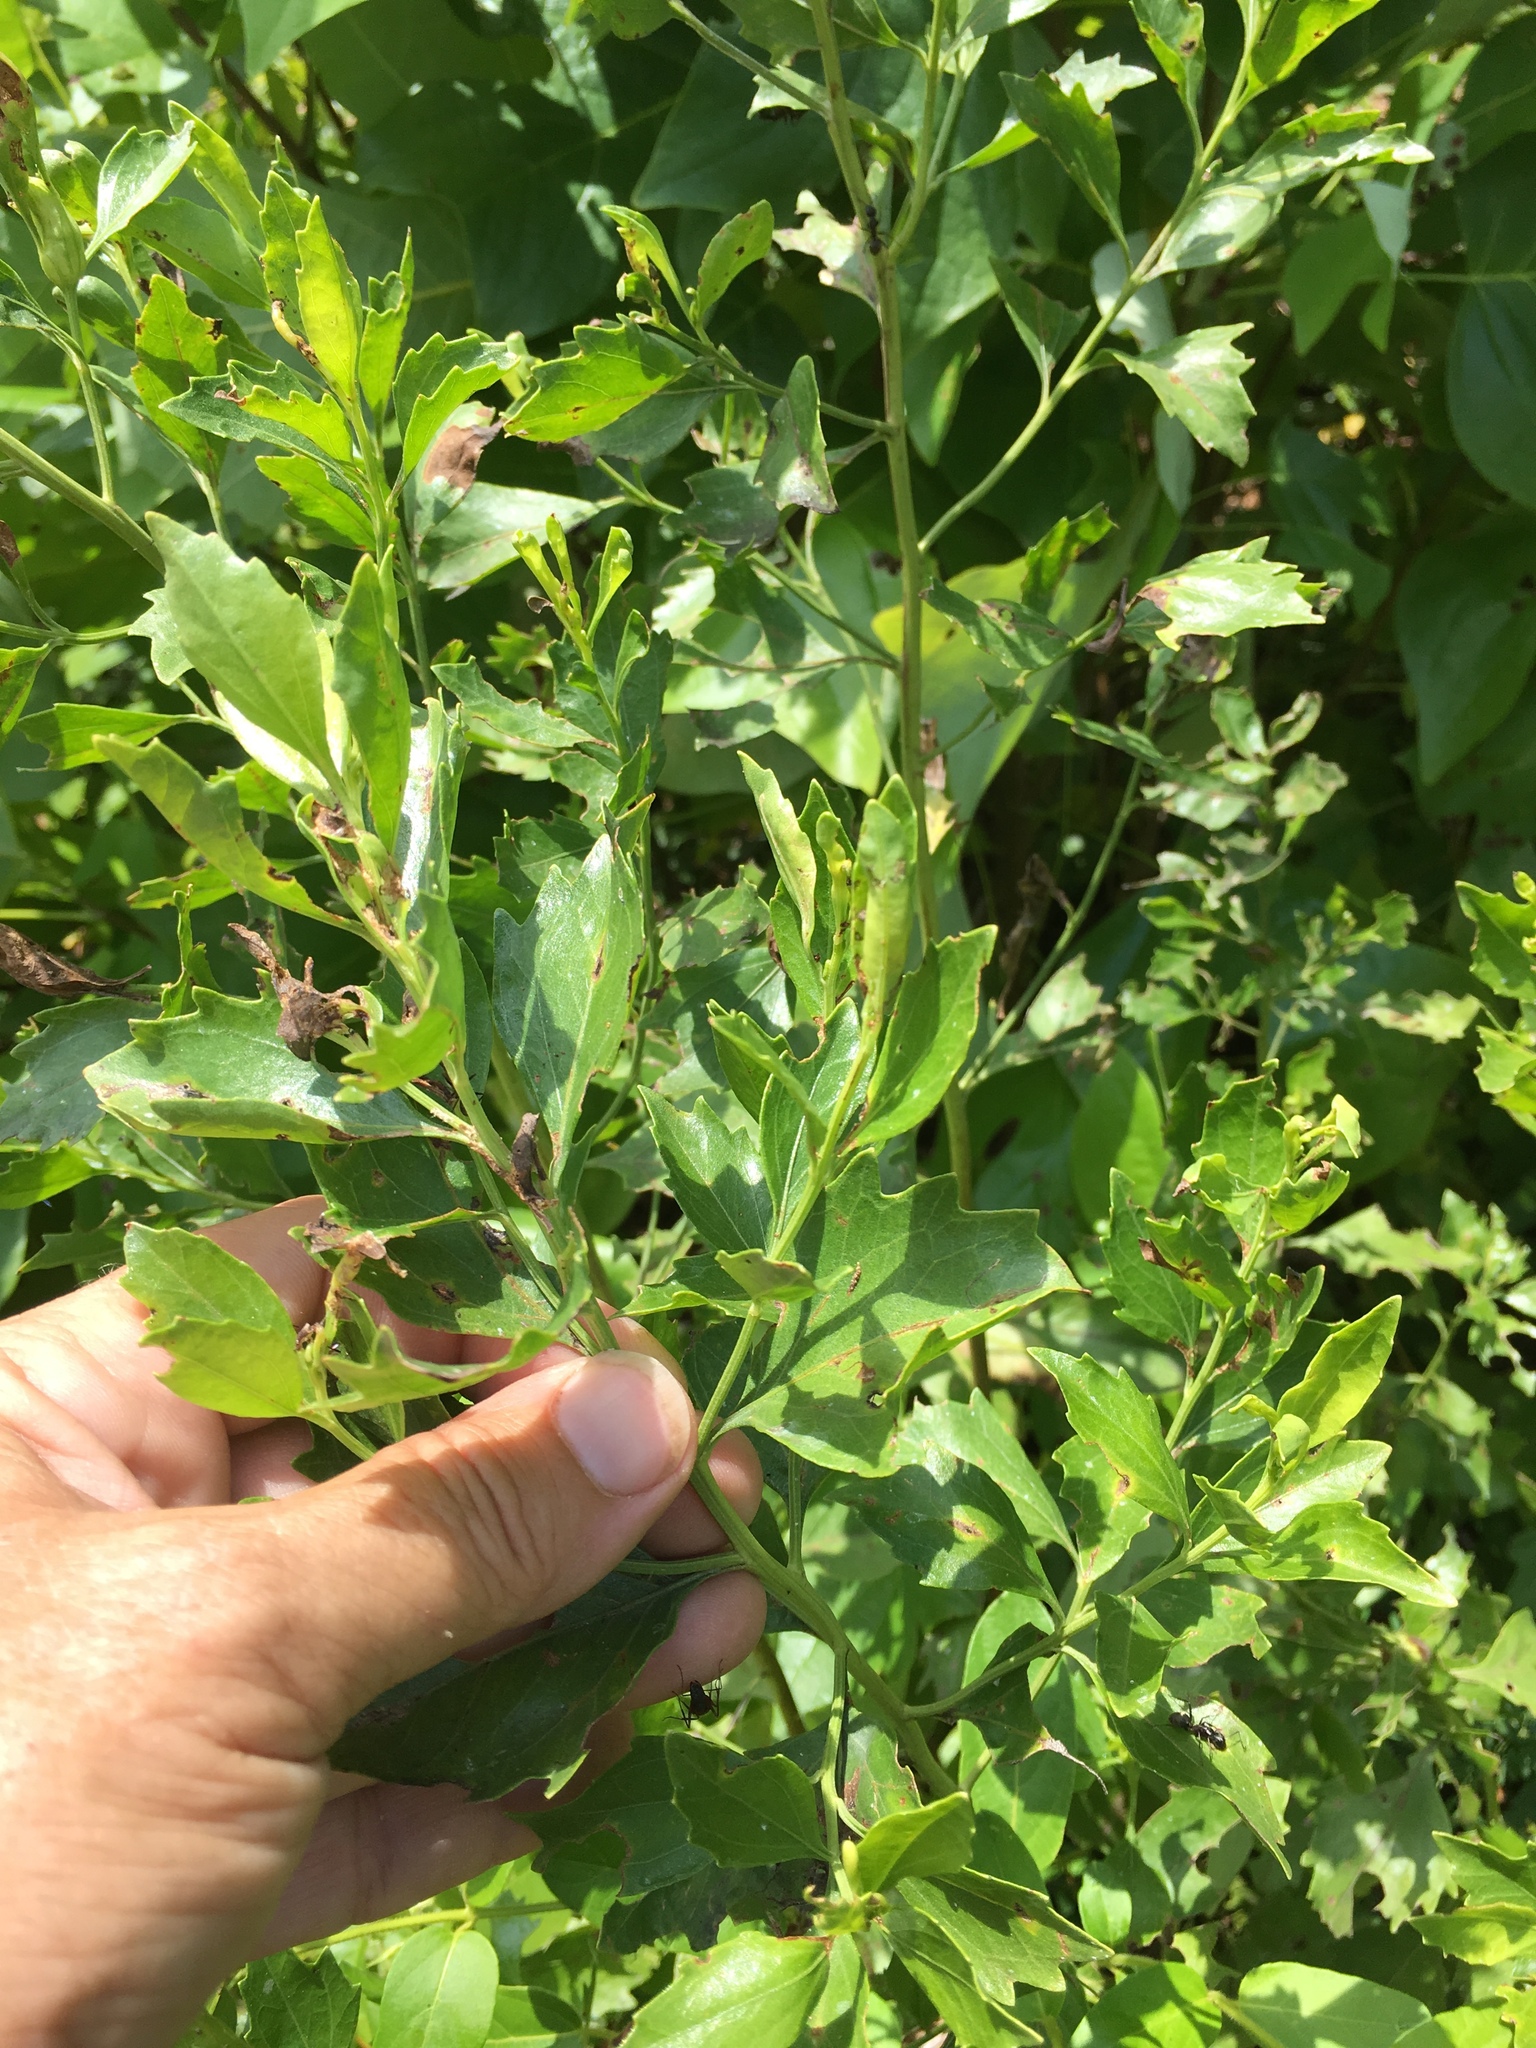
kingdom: Plantae
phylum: Tracheophyta
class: Magnoliopsida
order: Asterales
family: Asteraceae
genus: Baccharis
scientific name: Baccharis halimifolia
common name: Eastern baccharis
